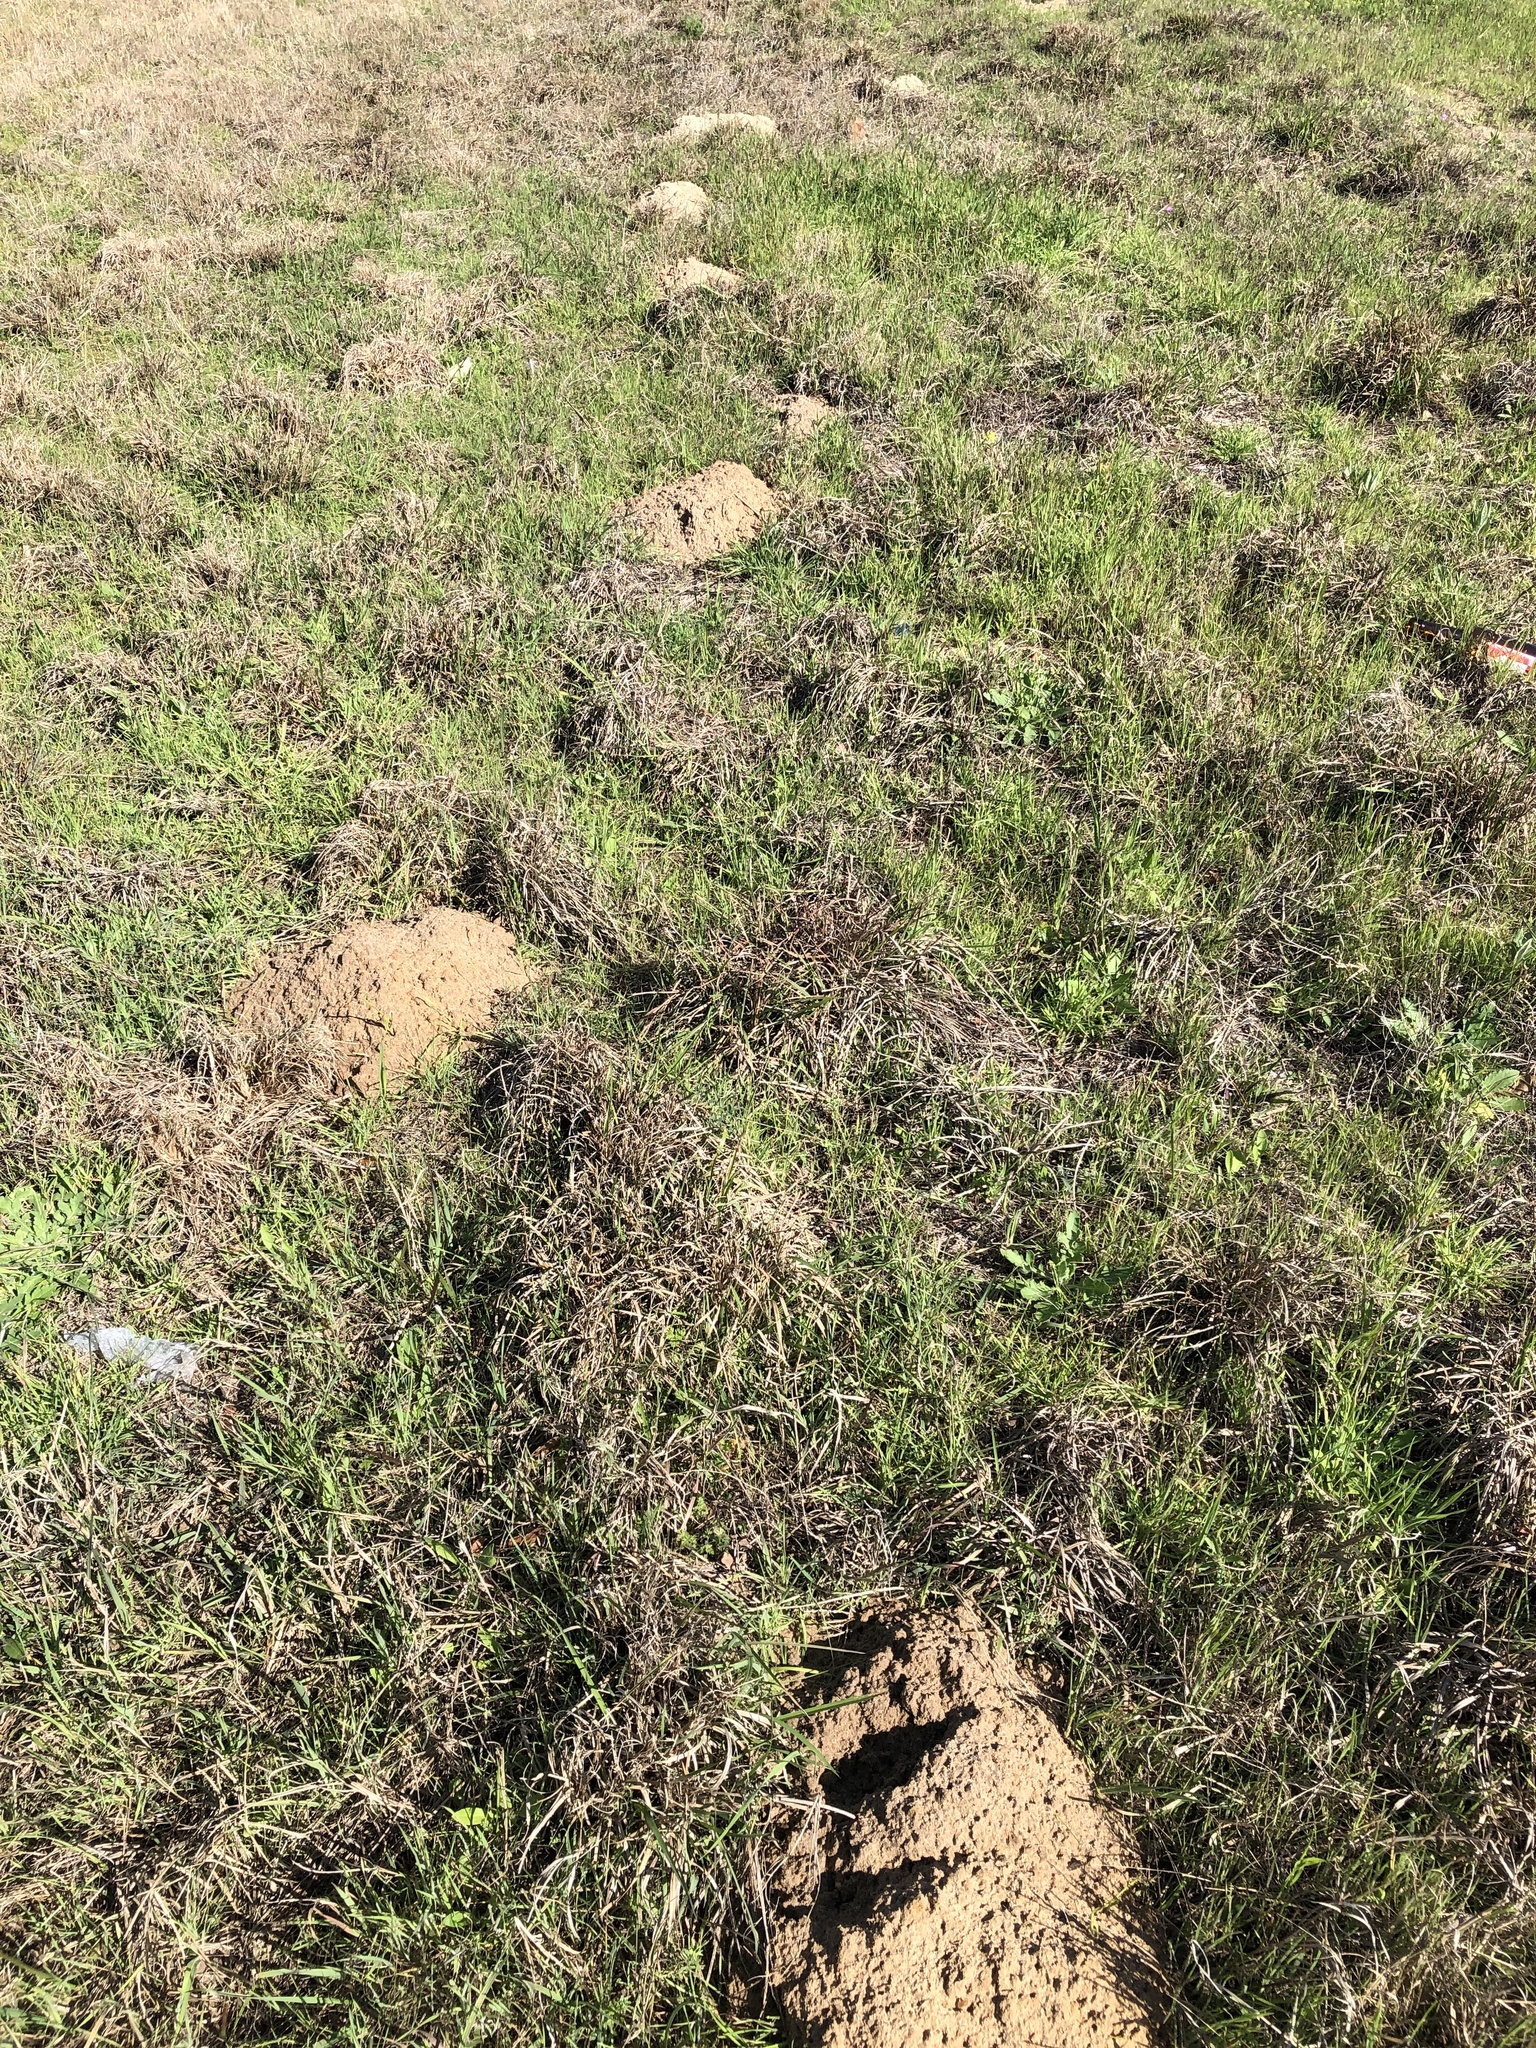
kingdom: Animalia
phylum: Chordata
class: Mammalia
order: Rodentia
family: Geomyidae
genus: Geomys
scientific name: Geomys attwateri
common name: Attwater's pocket gopher
